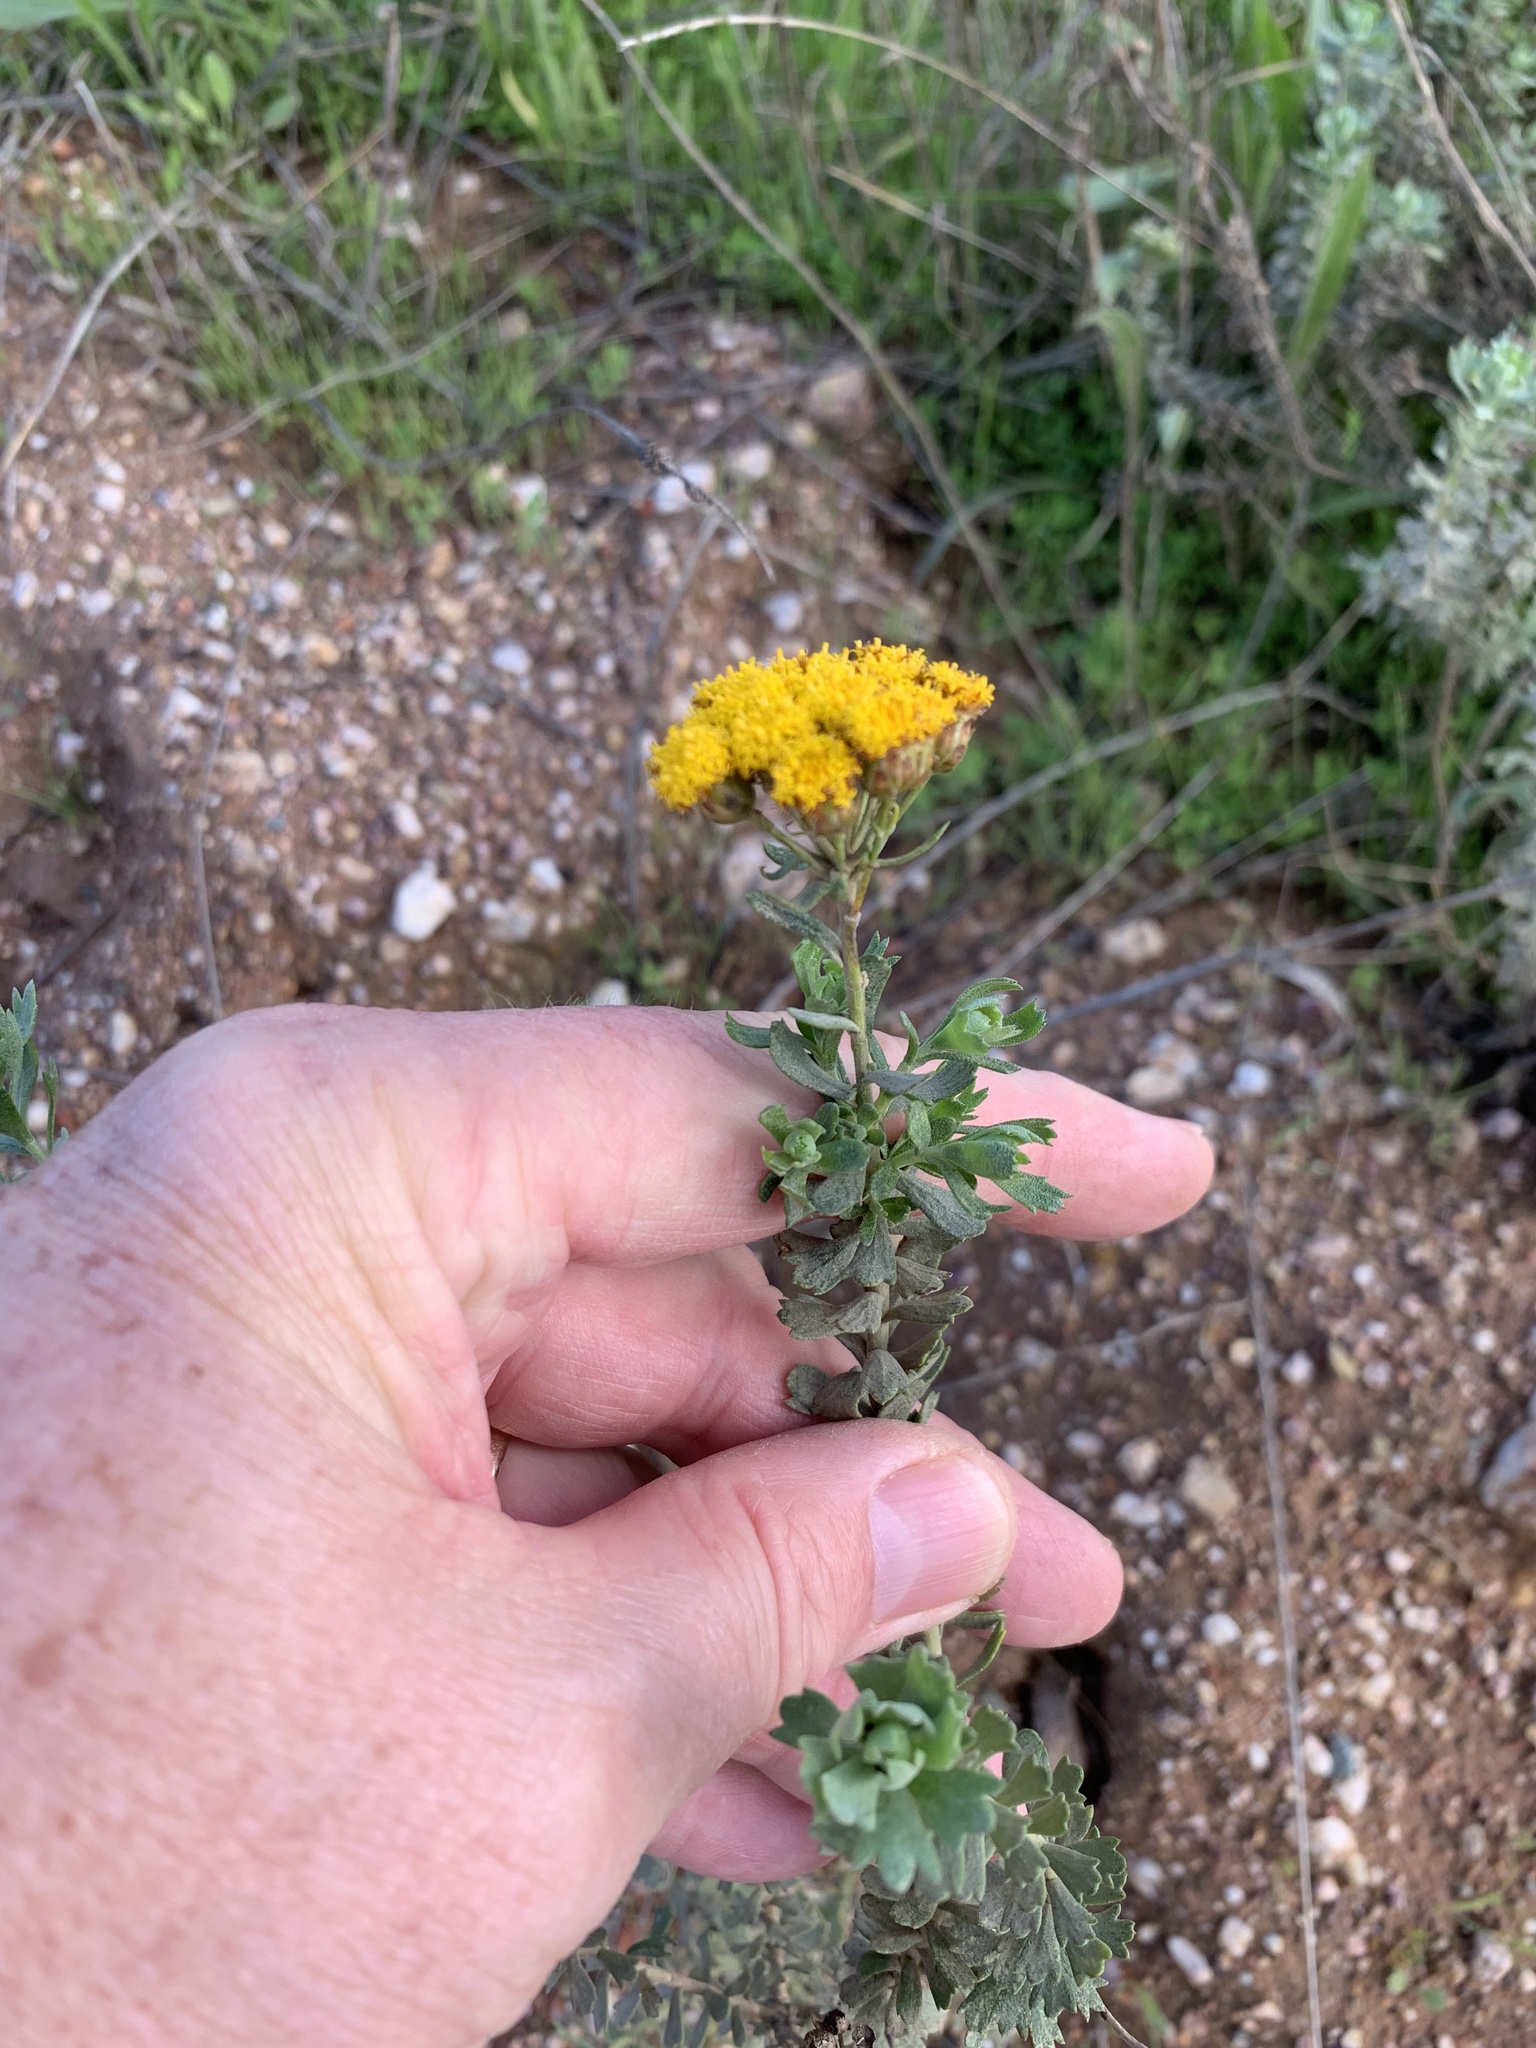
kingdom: Plantae
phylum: Tracheophyta
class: Magnoliopsida
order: Asterales
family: Asteraceae
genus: Athanasia
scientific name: Athanasia trifurcata
